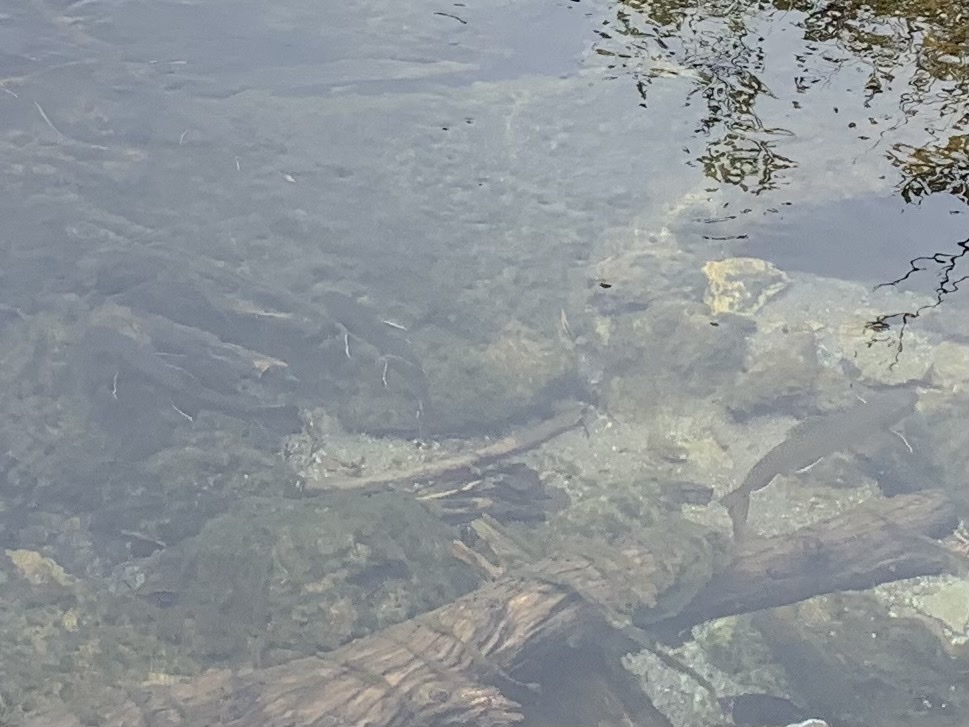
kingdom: Animalia
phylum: Chordata
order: Salmoniformes
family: Salmonidae
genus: Salvelinus
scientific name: Salvelinus fontinalis
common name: Brook trout
